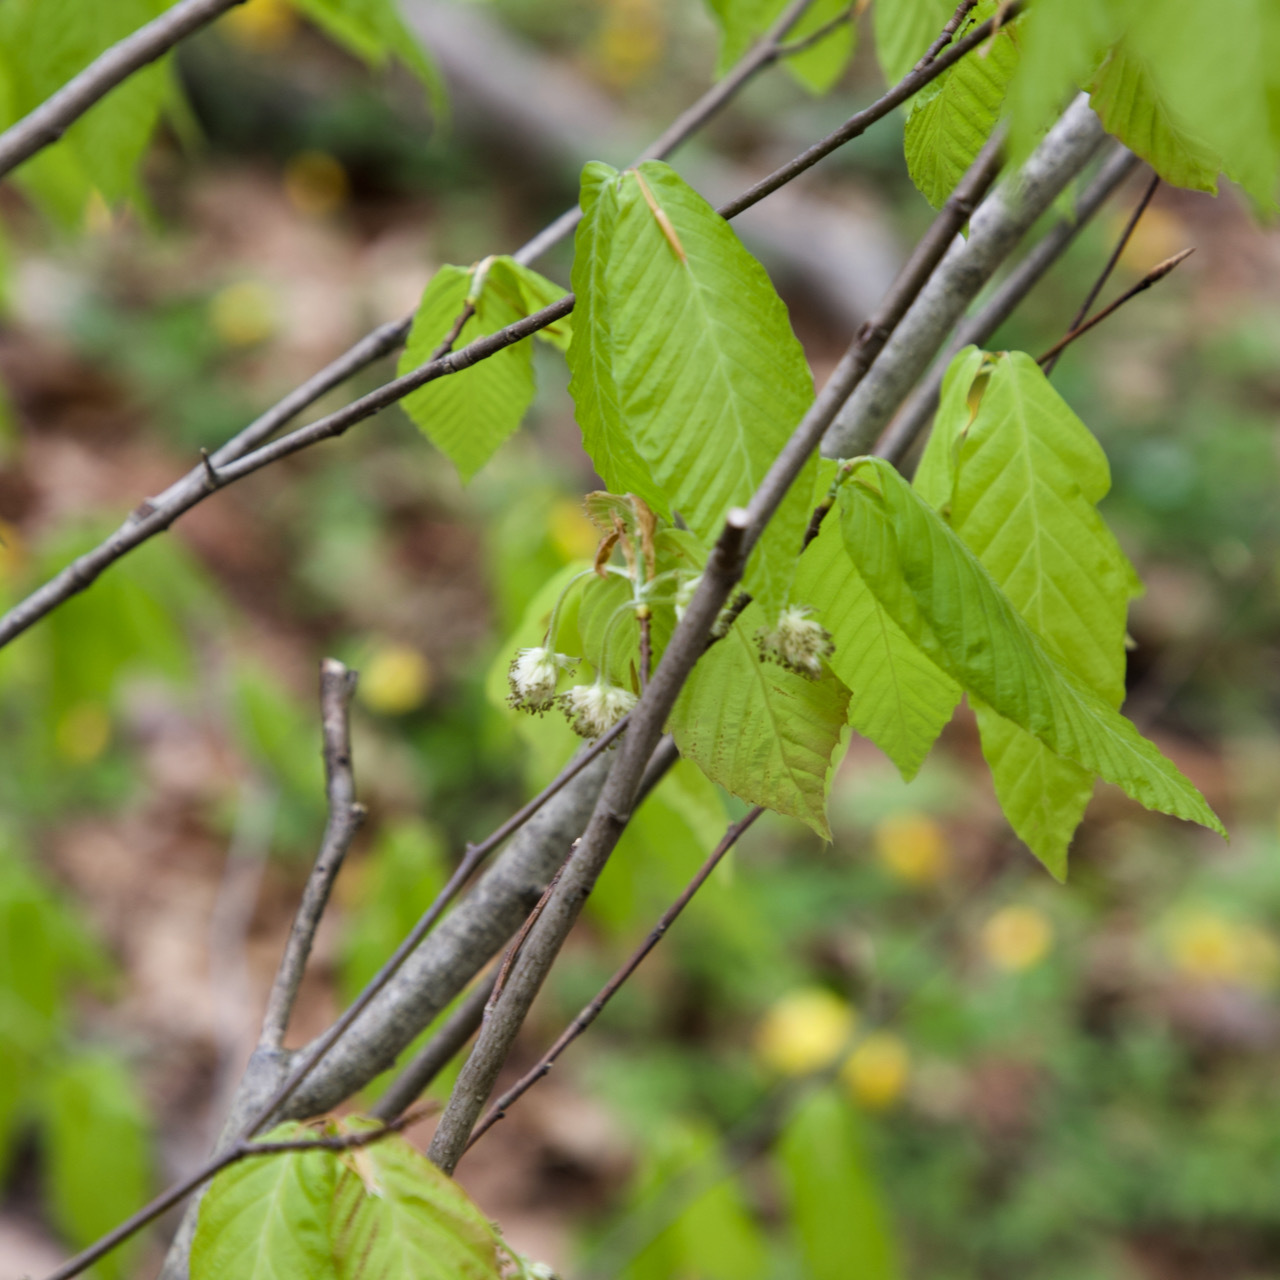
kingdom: Plantae
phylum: Tracheophyta
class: Magnoliopsida
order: Fagales
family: Fagaceae
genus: Fagus
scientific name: Fagus grandifolia
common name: American beech
